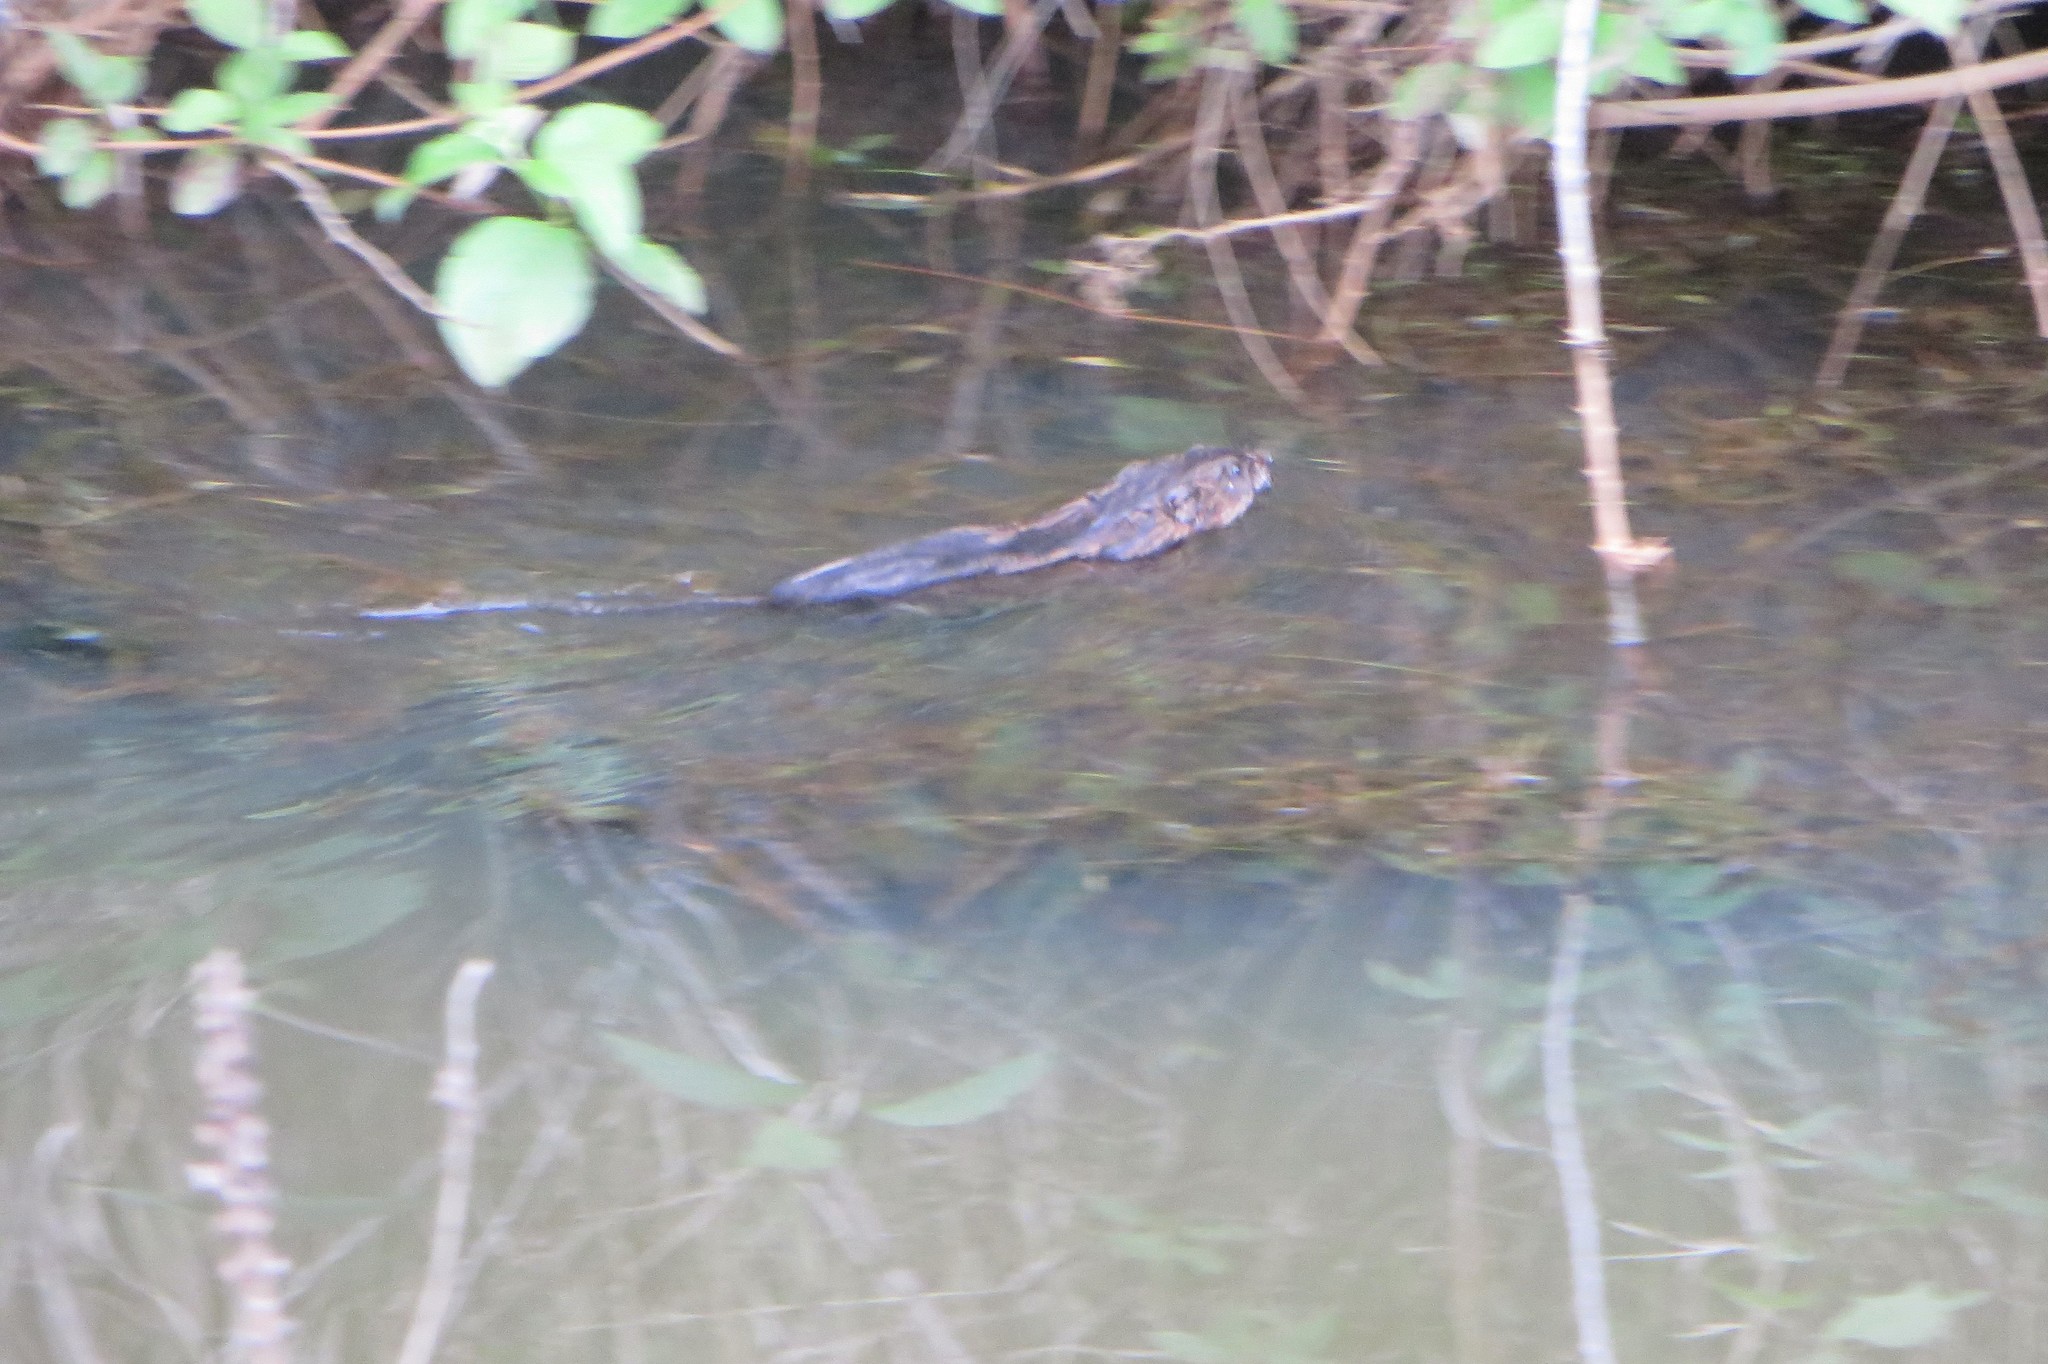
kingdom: Animalia
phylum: Chordata
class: Mammalia
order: Rodentia
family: Cricetidae
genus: Ondatra
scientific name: Ondatra zibethicus
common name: Muskrat
